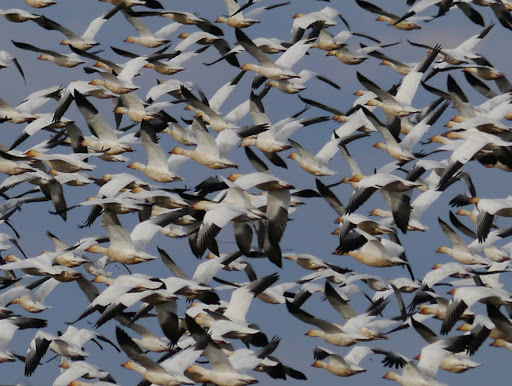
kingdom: Animalia
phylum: Chordata
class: Aves
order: Anseriformes
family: Anatidae
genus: Anser
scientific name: Anser caerulescens
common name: Snow goose
